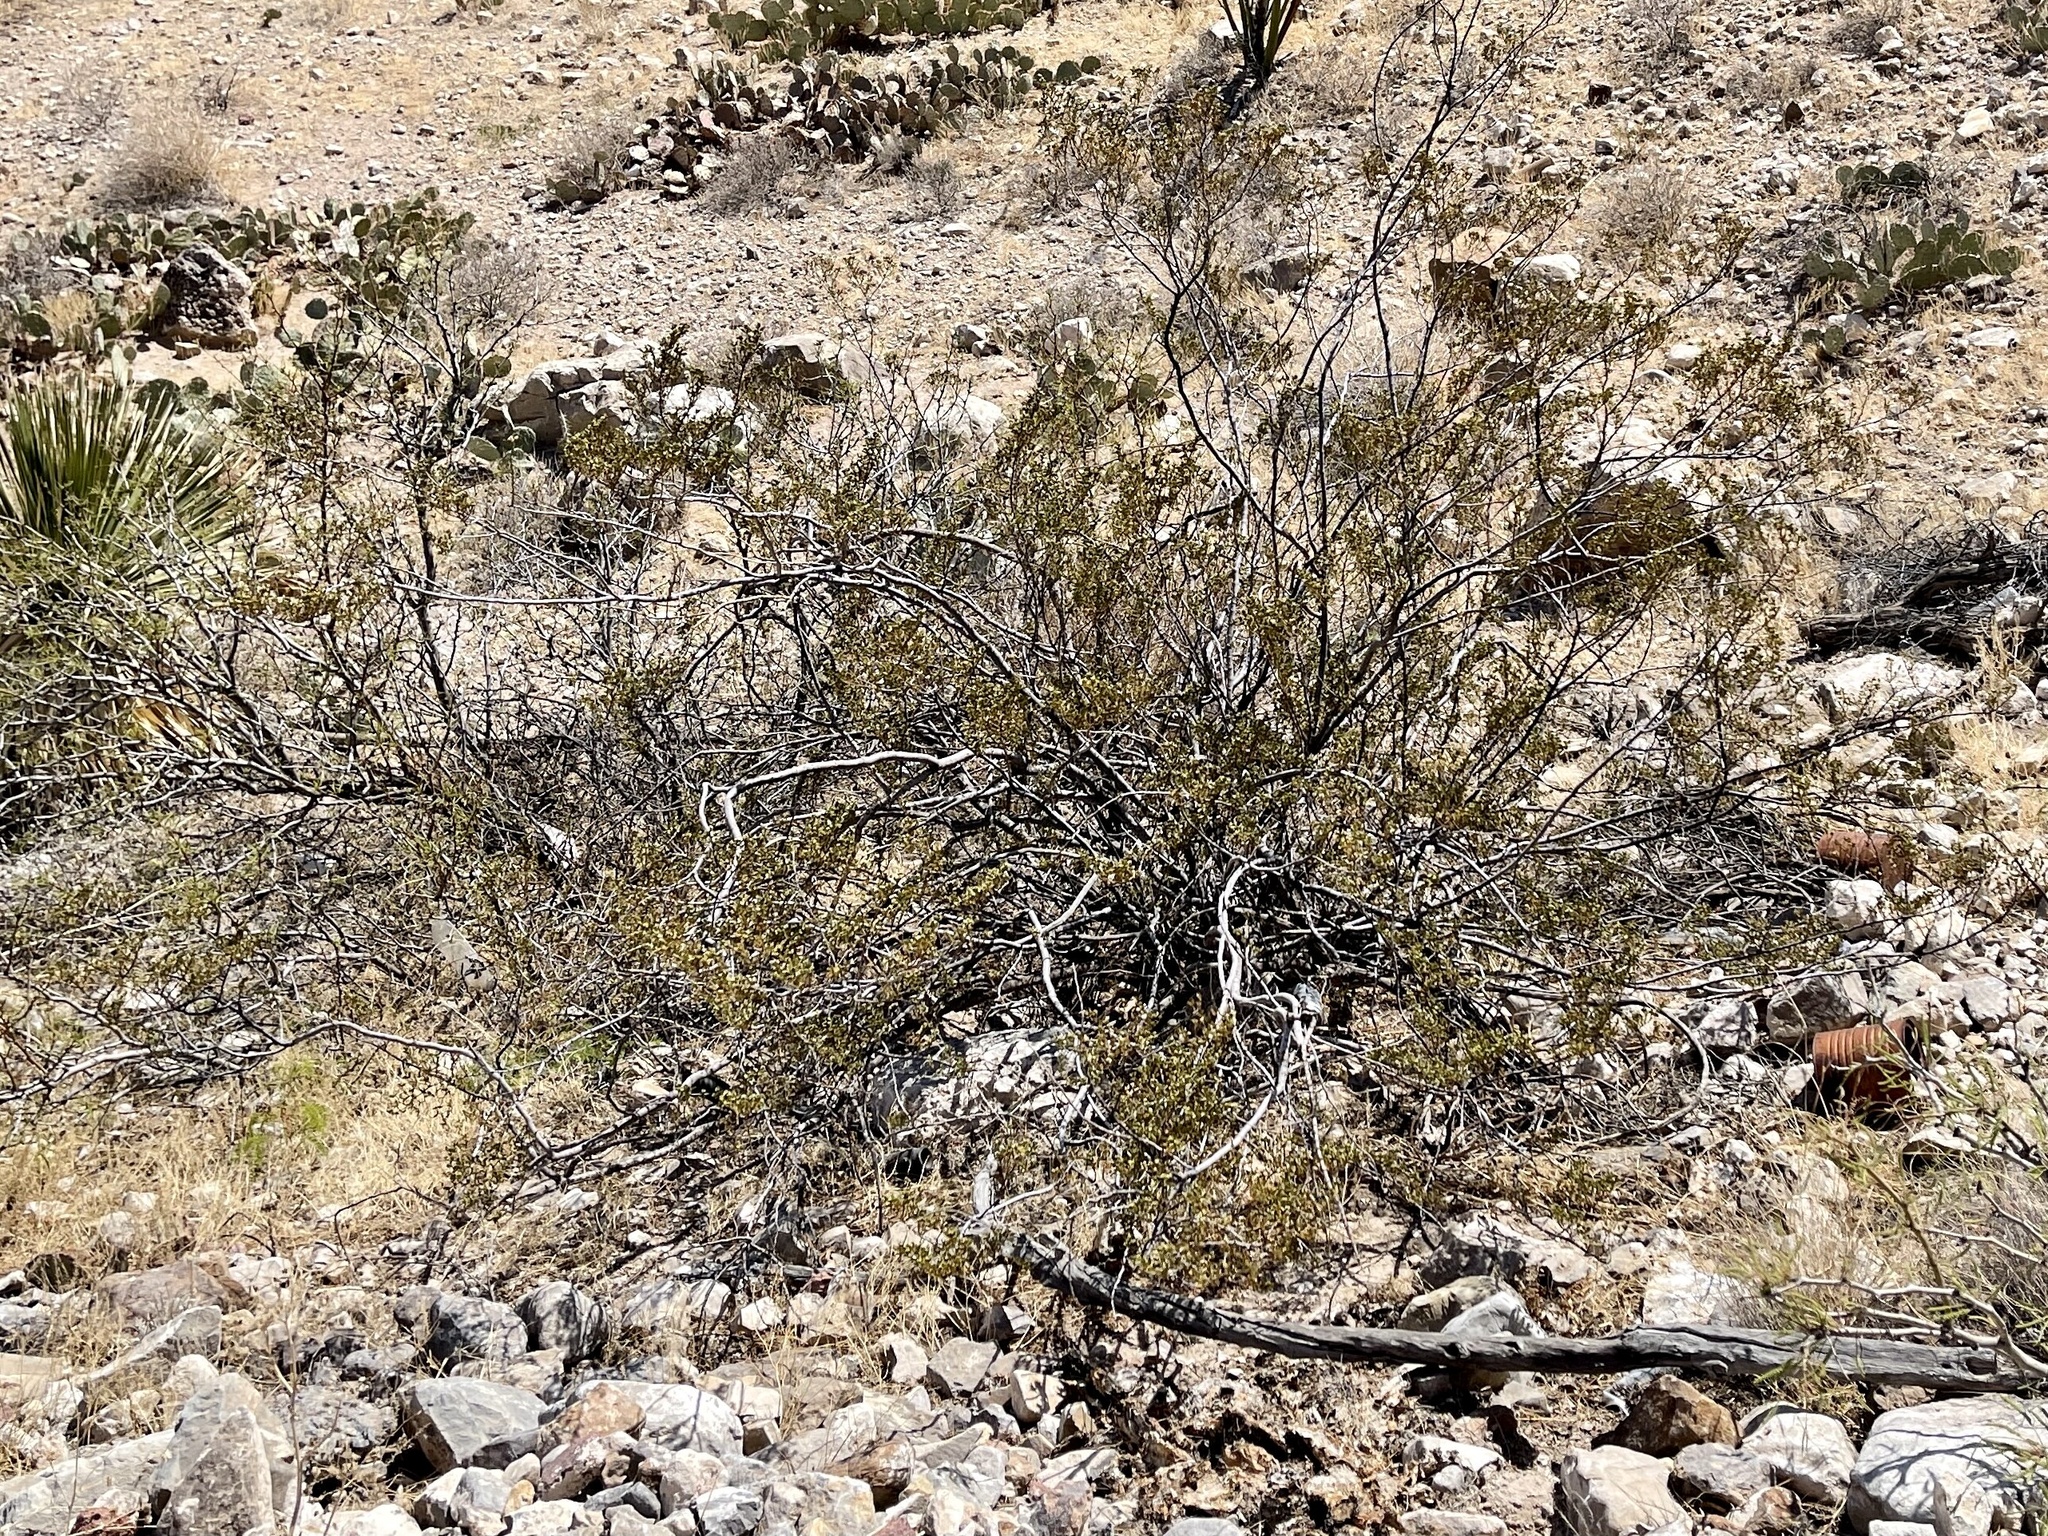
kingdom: Plantae
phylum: Tracheophyta
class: Magnoliopsida
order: Zygophyllales
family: Zygophyllaceae
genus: Larrea
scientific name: Larrea tridentata
